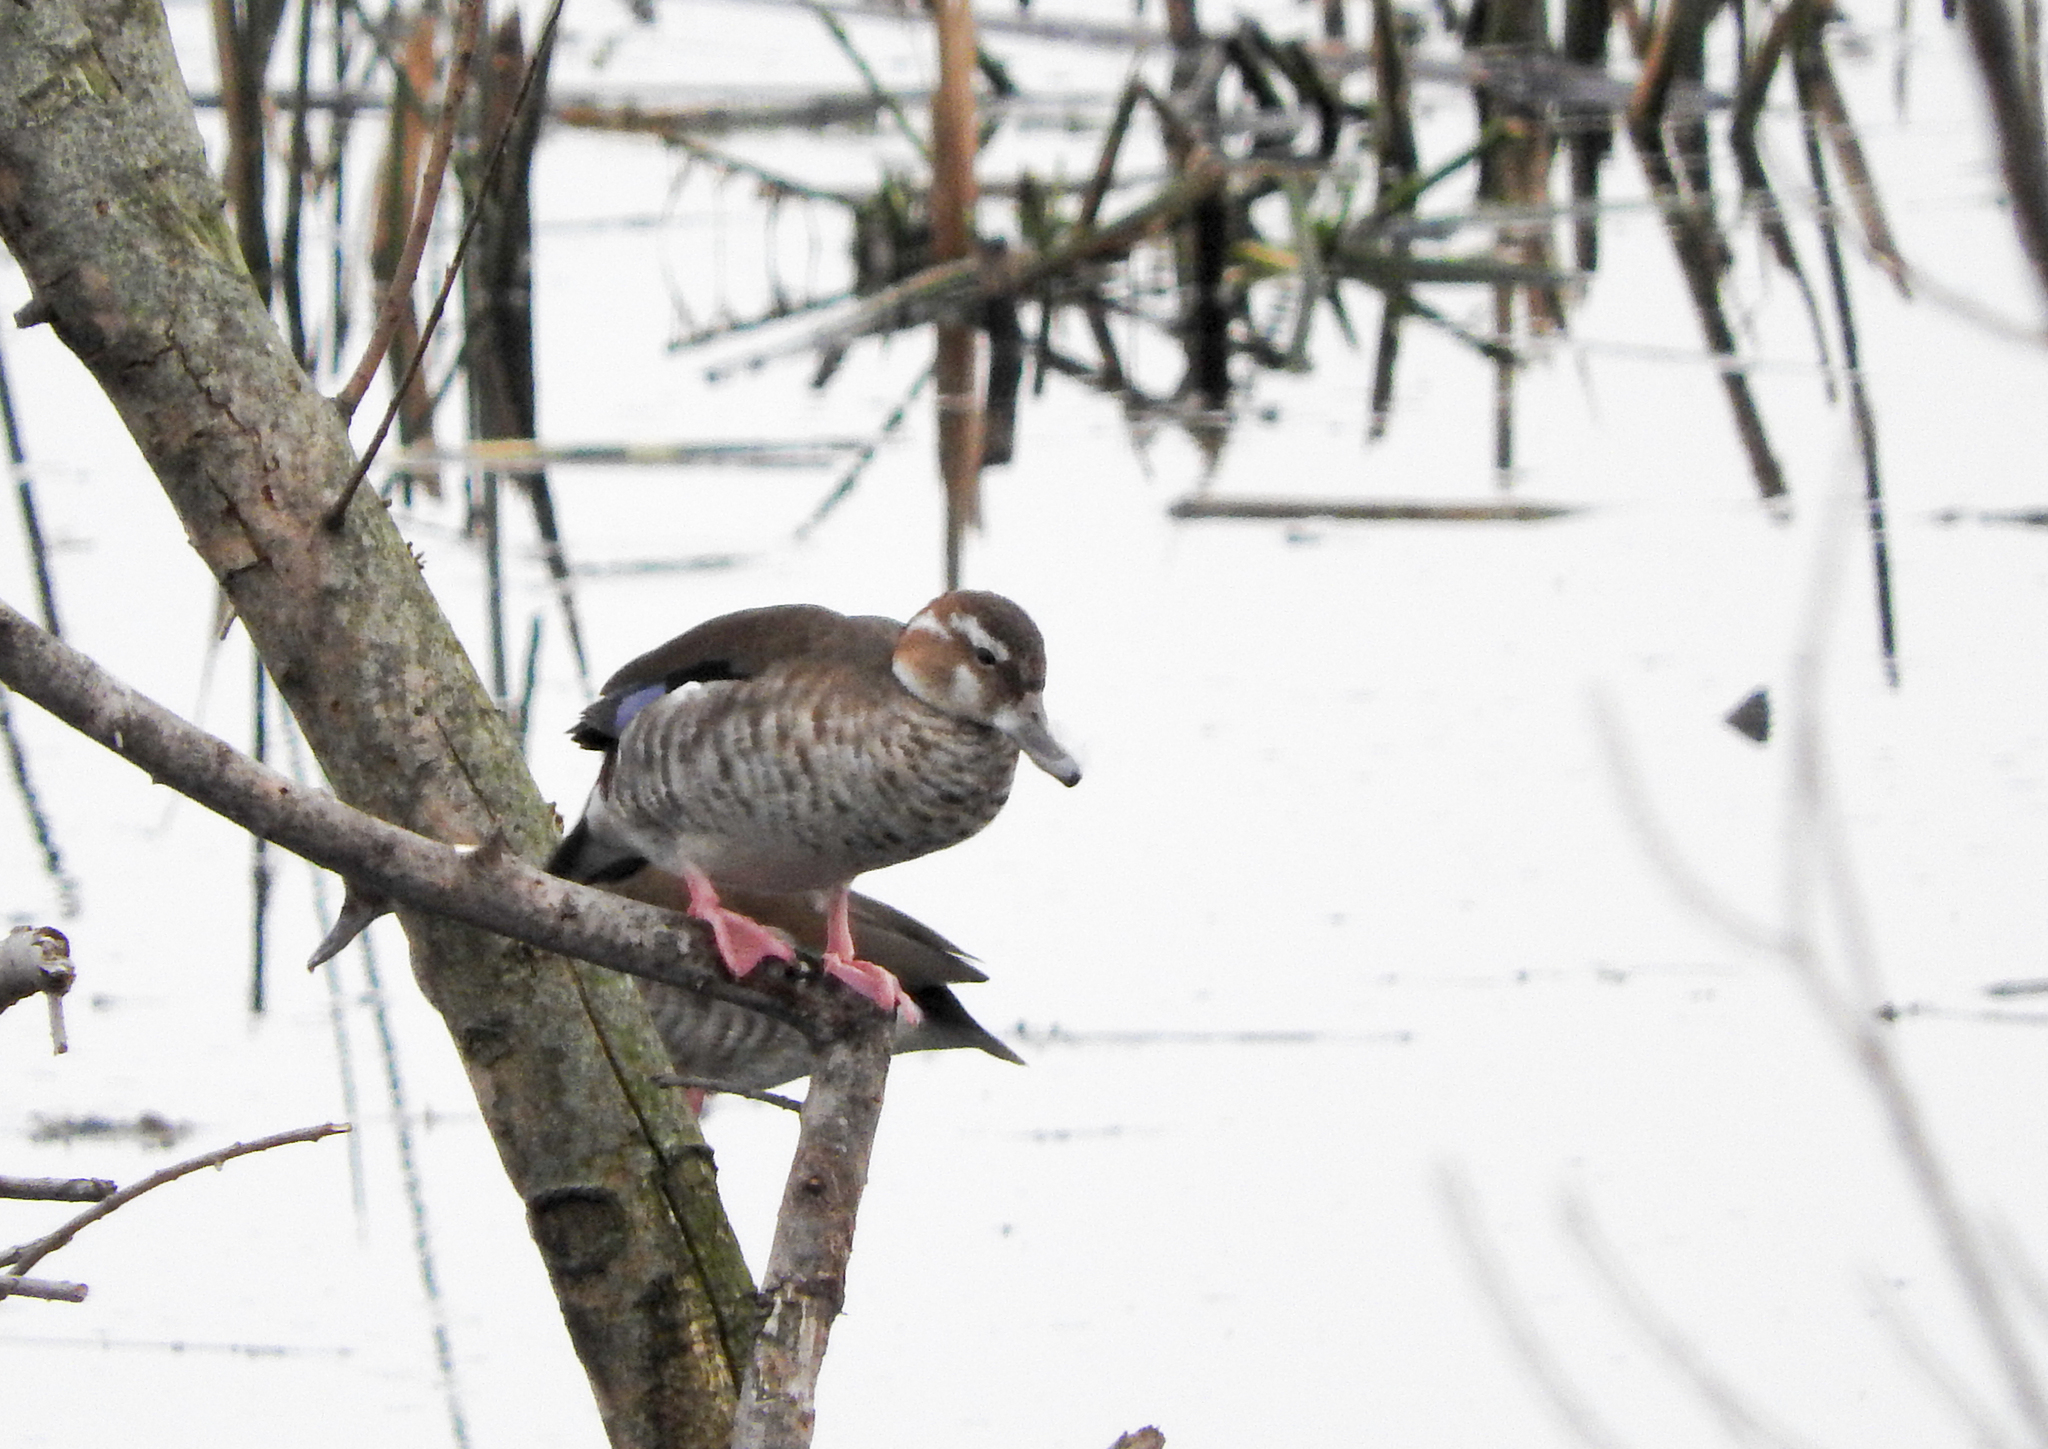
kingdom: Animalia
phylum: Chordata
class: Aves
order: Anseriformes
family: Anatidae
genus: Callonetta
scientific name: Callonetta leucophrys
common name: Ringed teal
